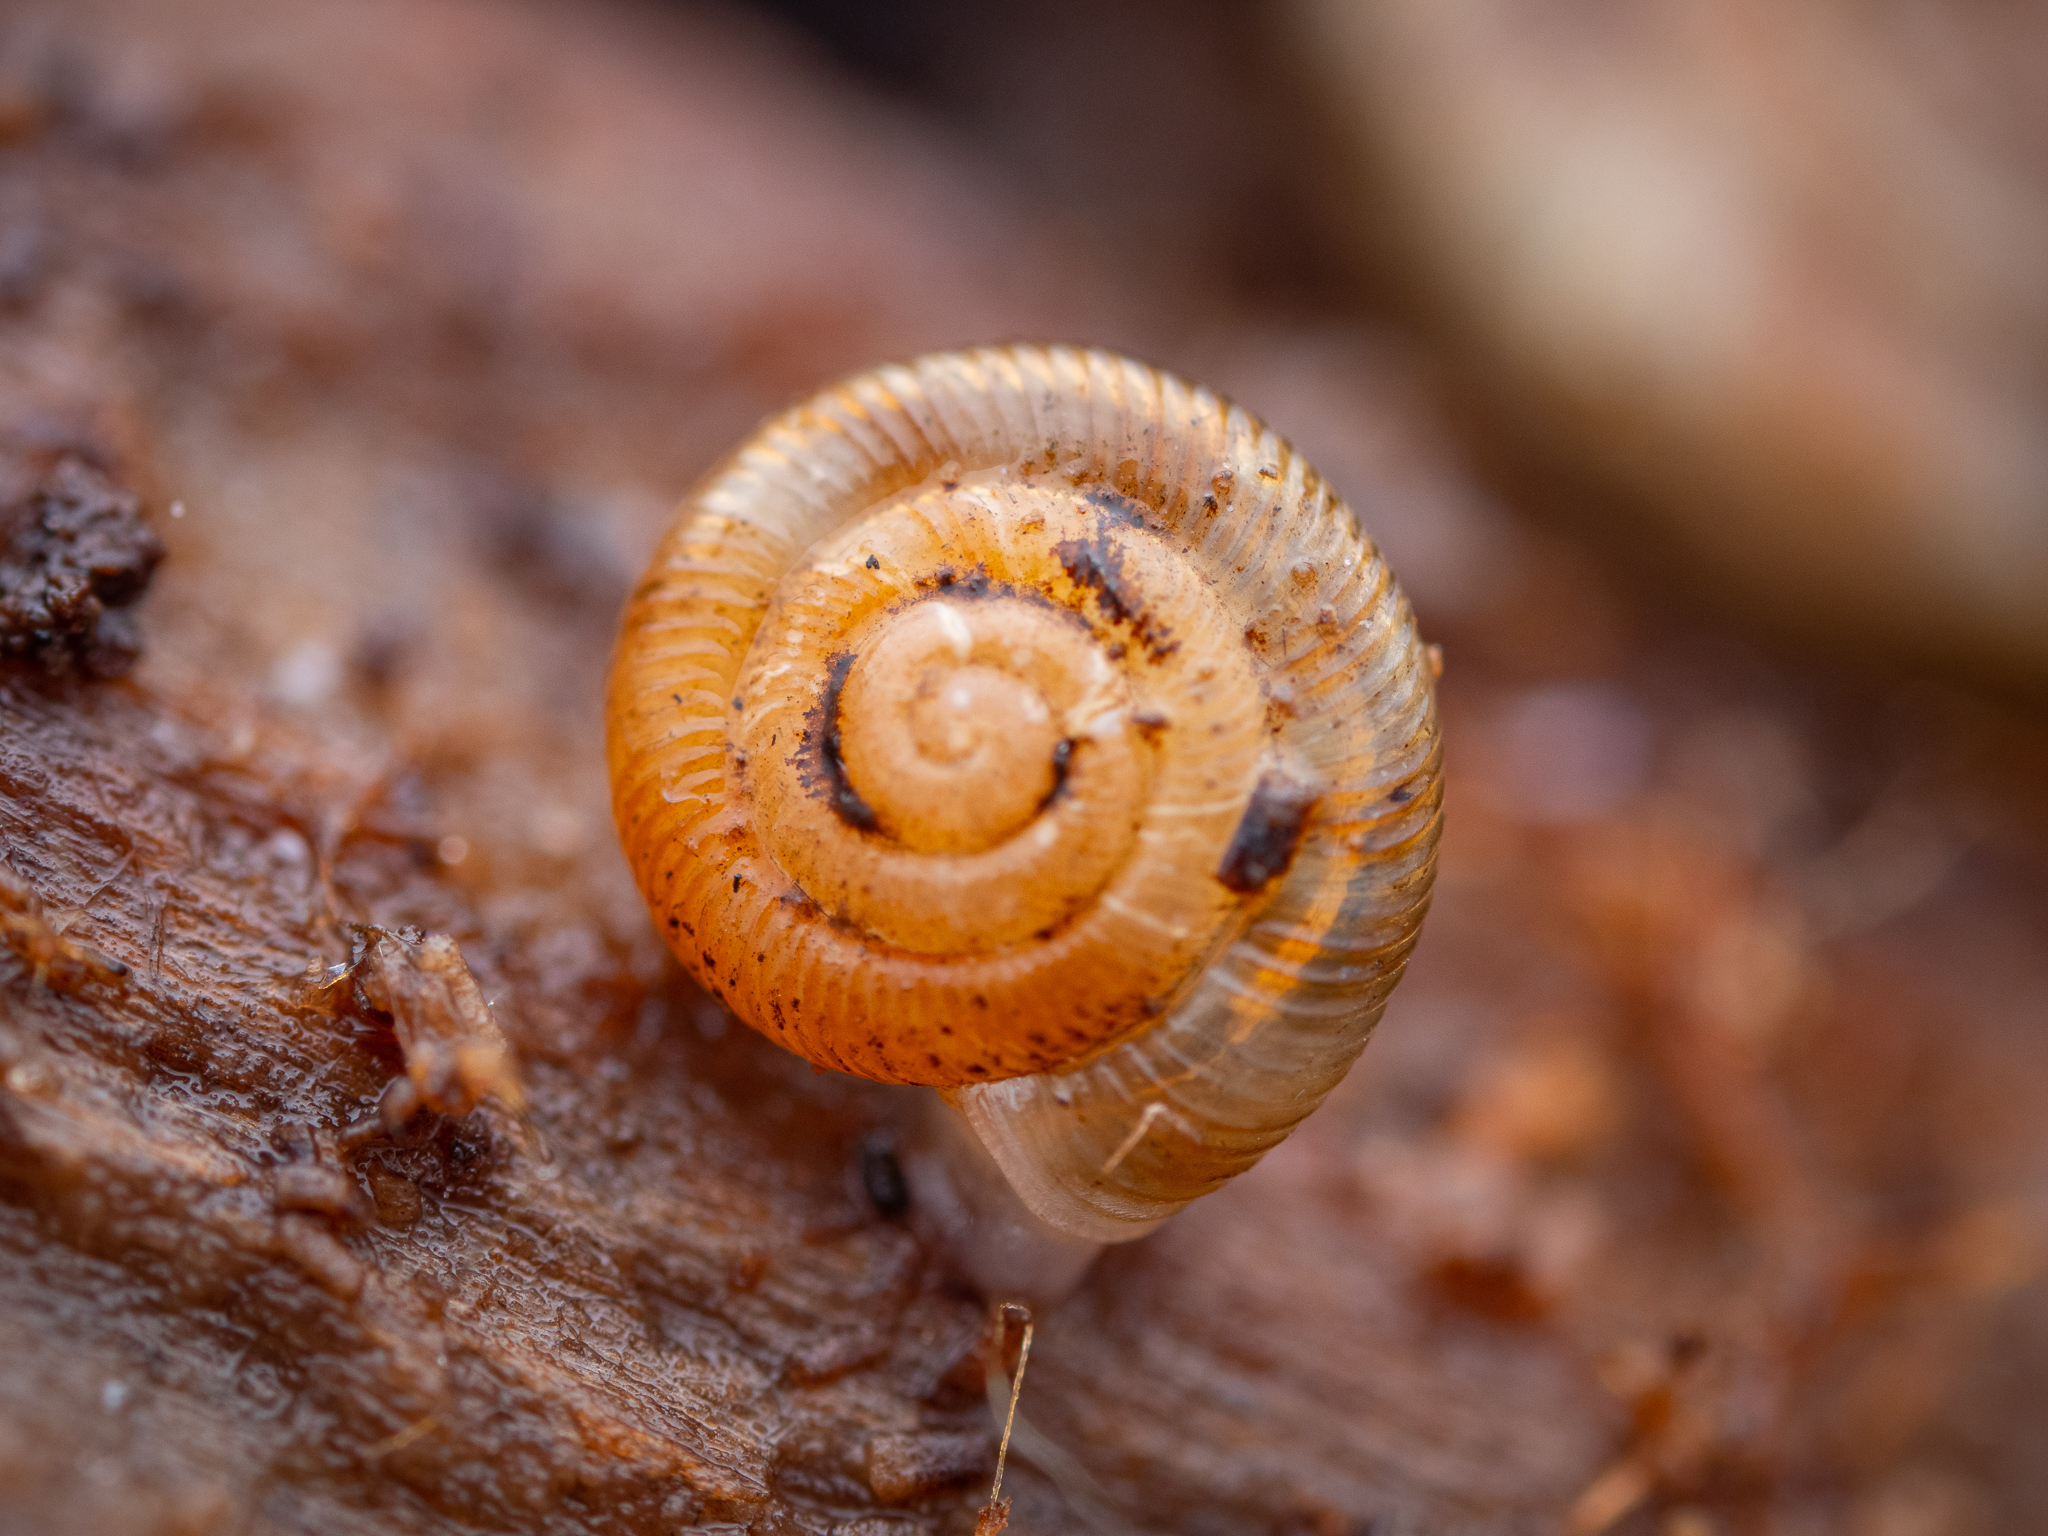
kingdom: Animalia
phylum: Mollusca
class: Gastropoda
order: Stylommatophora
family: Discidae
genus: Discus
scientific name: Discus rotundatus
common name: Rounded snail
